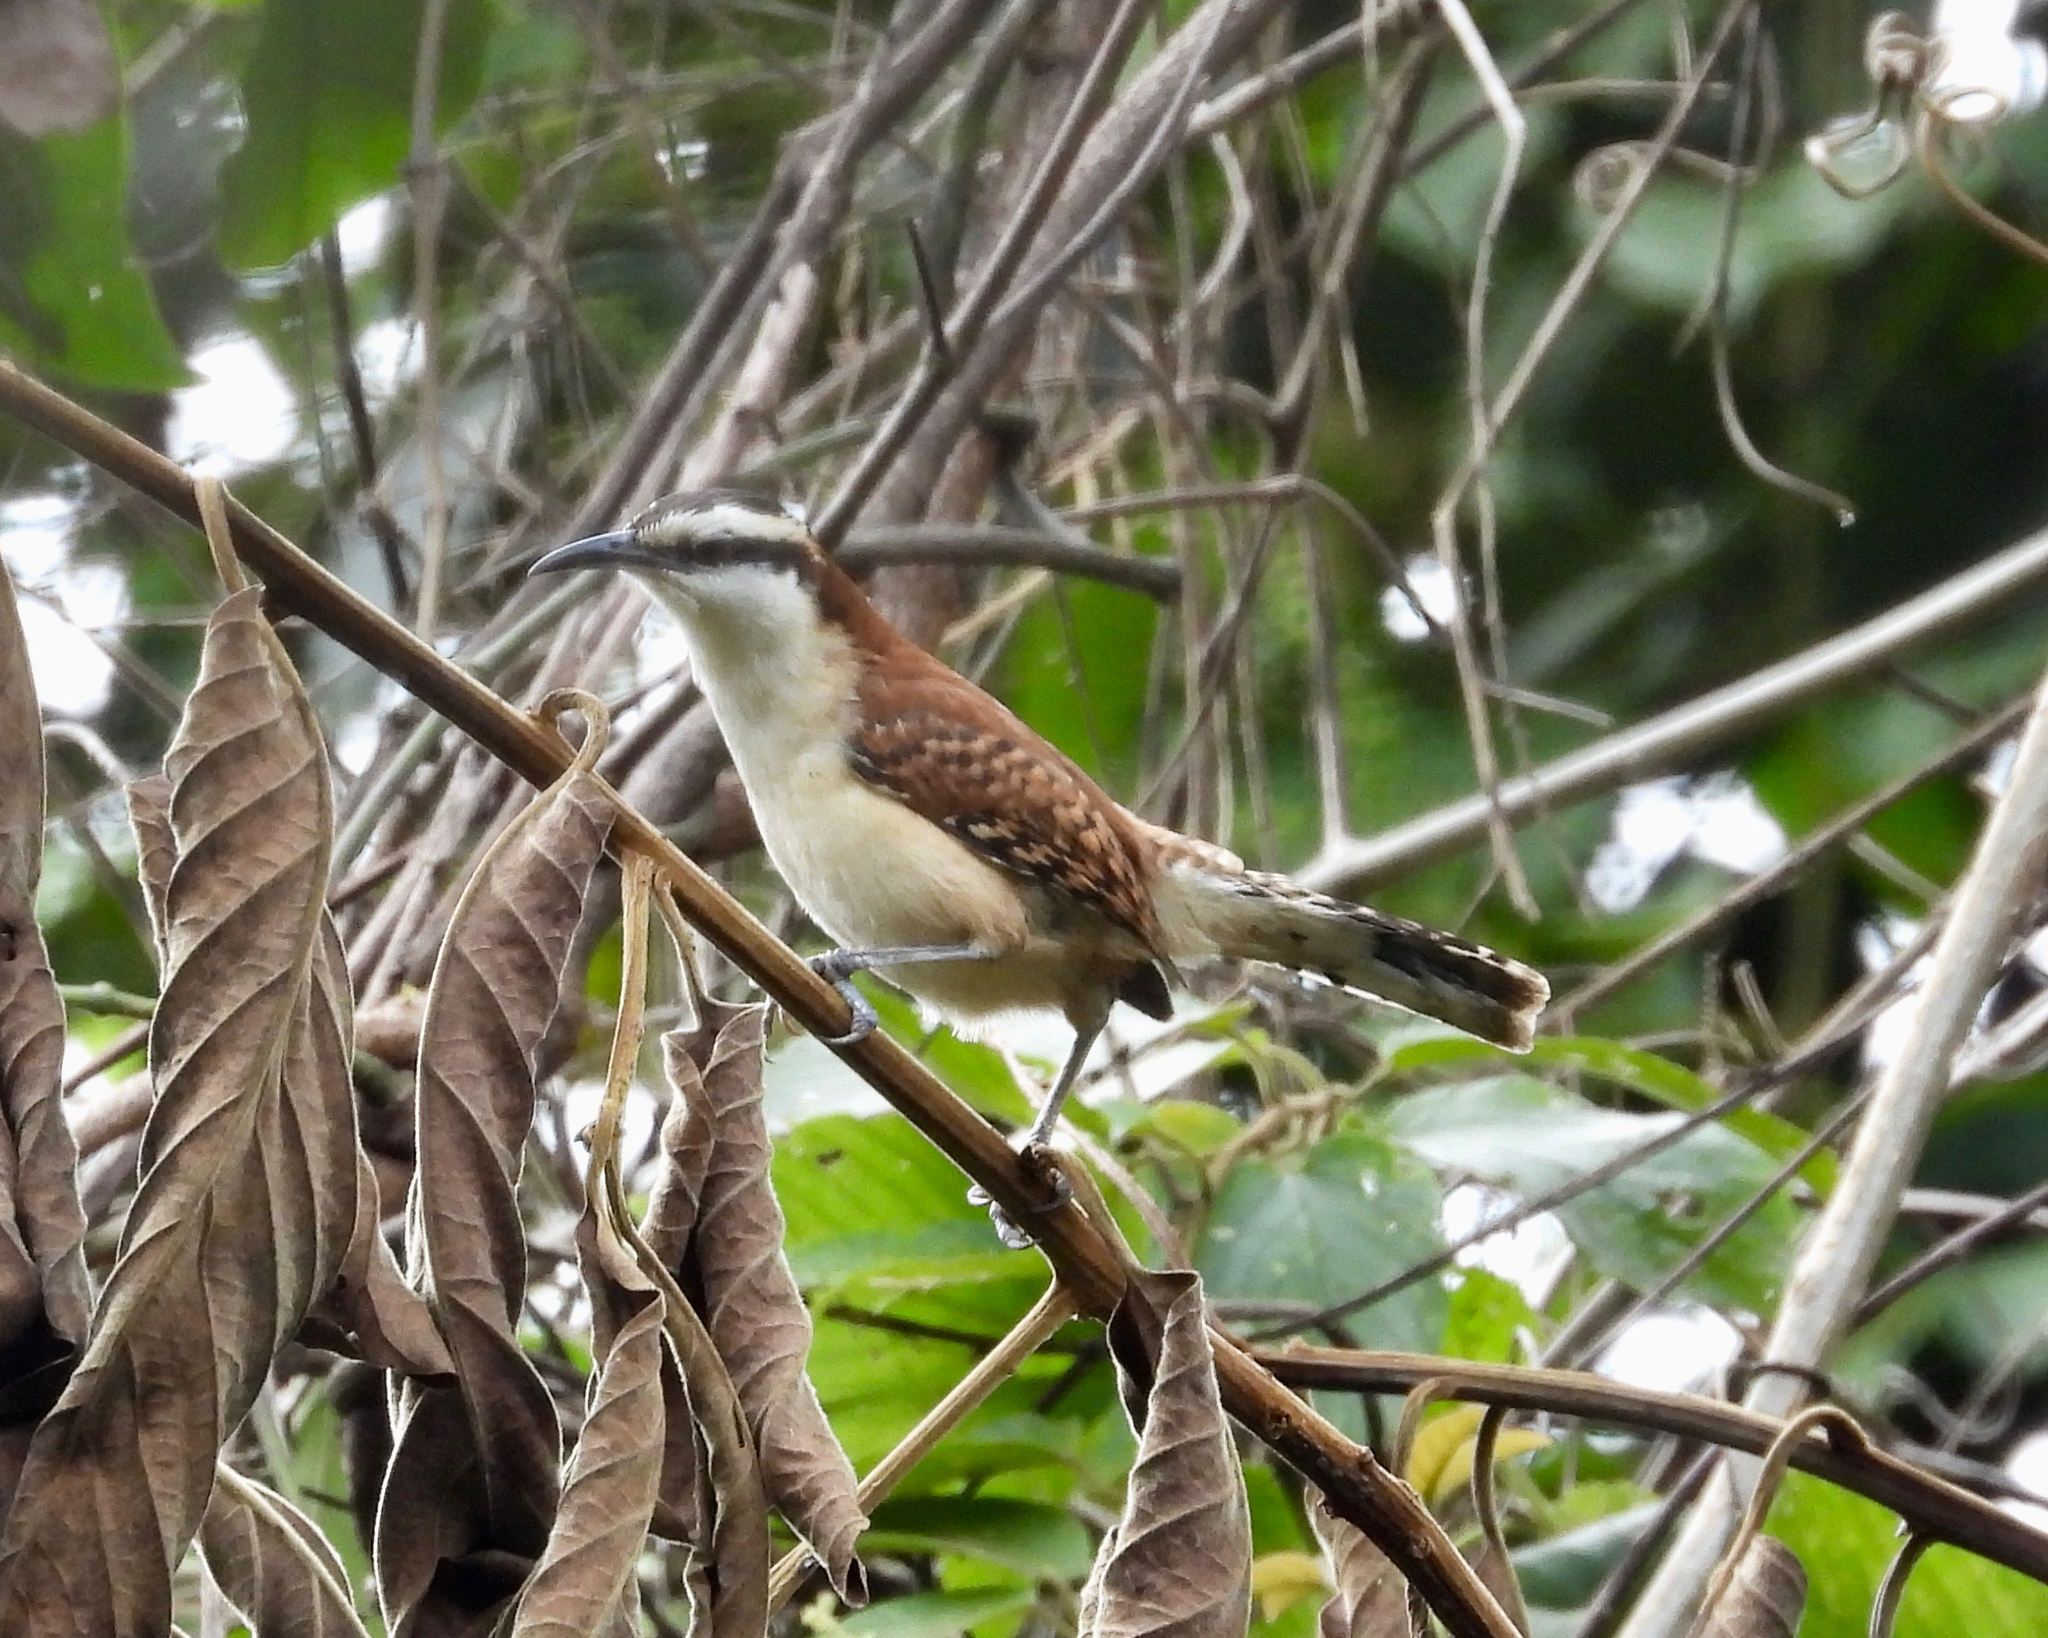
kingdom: Animalia
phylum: Chordata
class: Aves
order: Passeriformes
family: Troglodytidae
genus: Campylorhynchus
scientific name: Campylorhynchus rufinucha
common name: Rufous-naped wren
